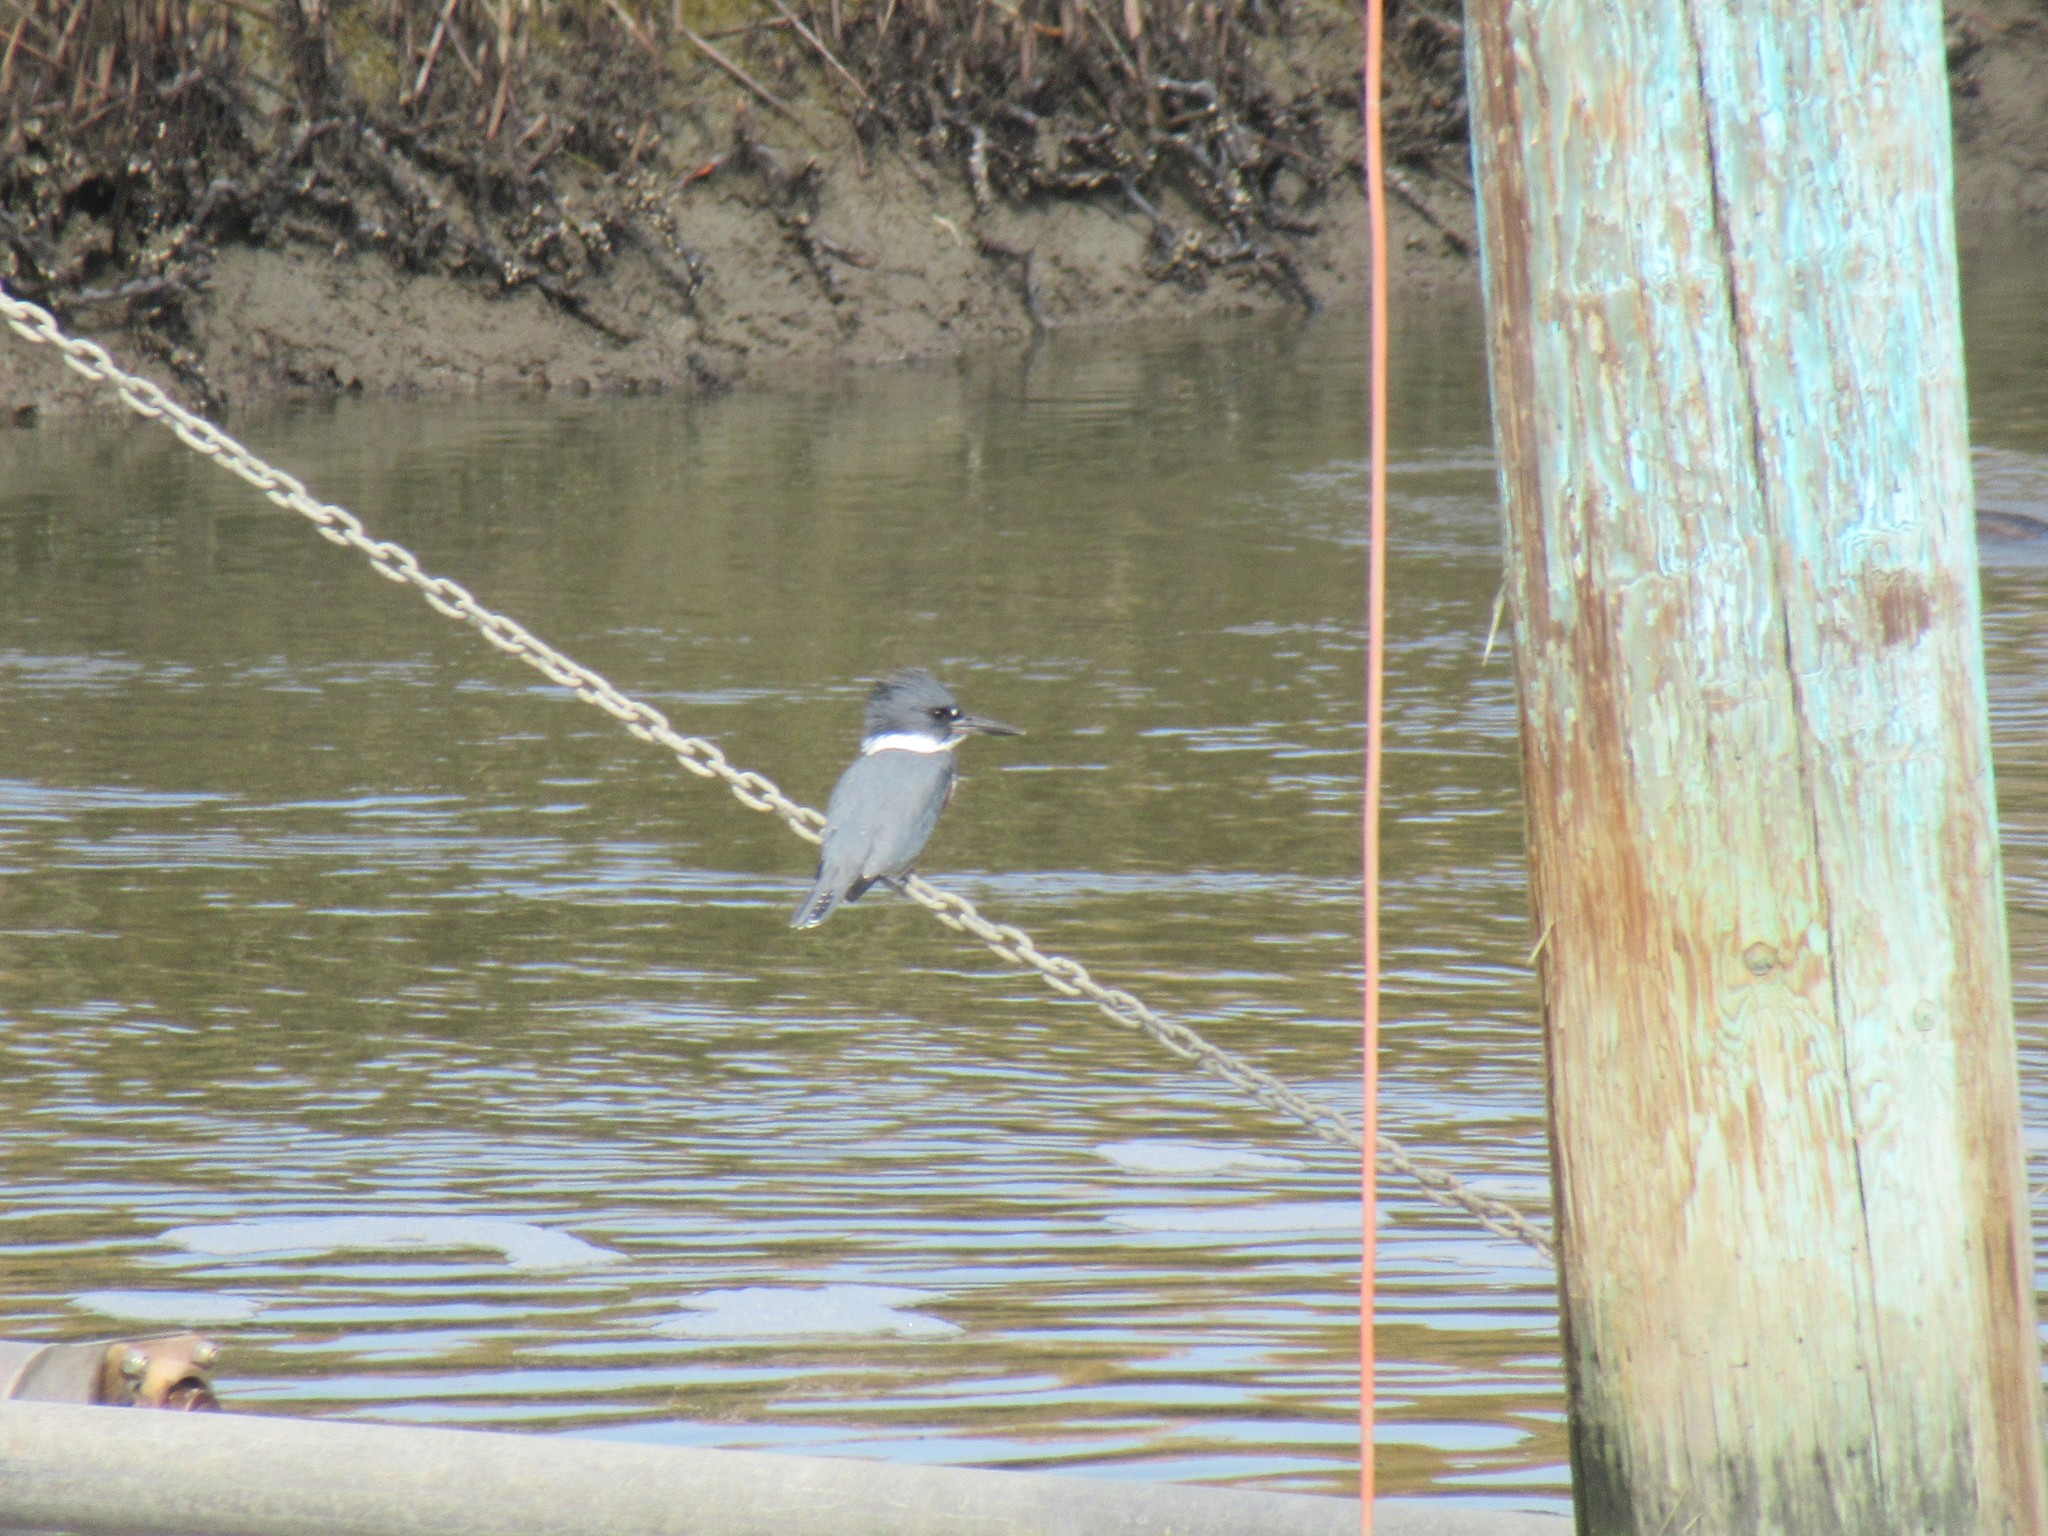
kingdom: Animalia
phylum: Chordata
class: Aves
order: Coraciiformes
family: Alcedinidae
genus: Megaceryle
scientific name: Megaceryle alcyon
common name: Belted kingfisher
